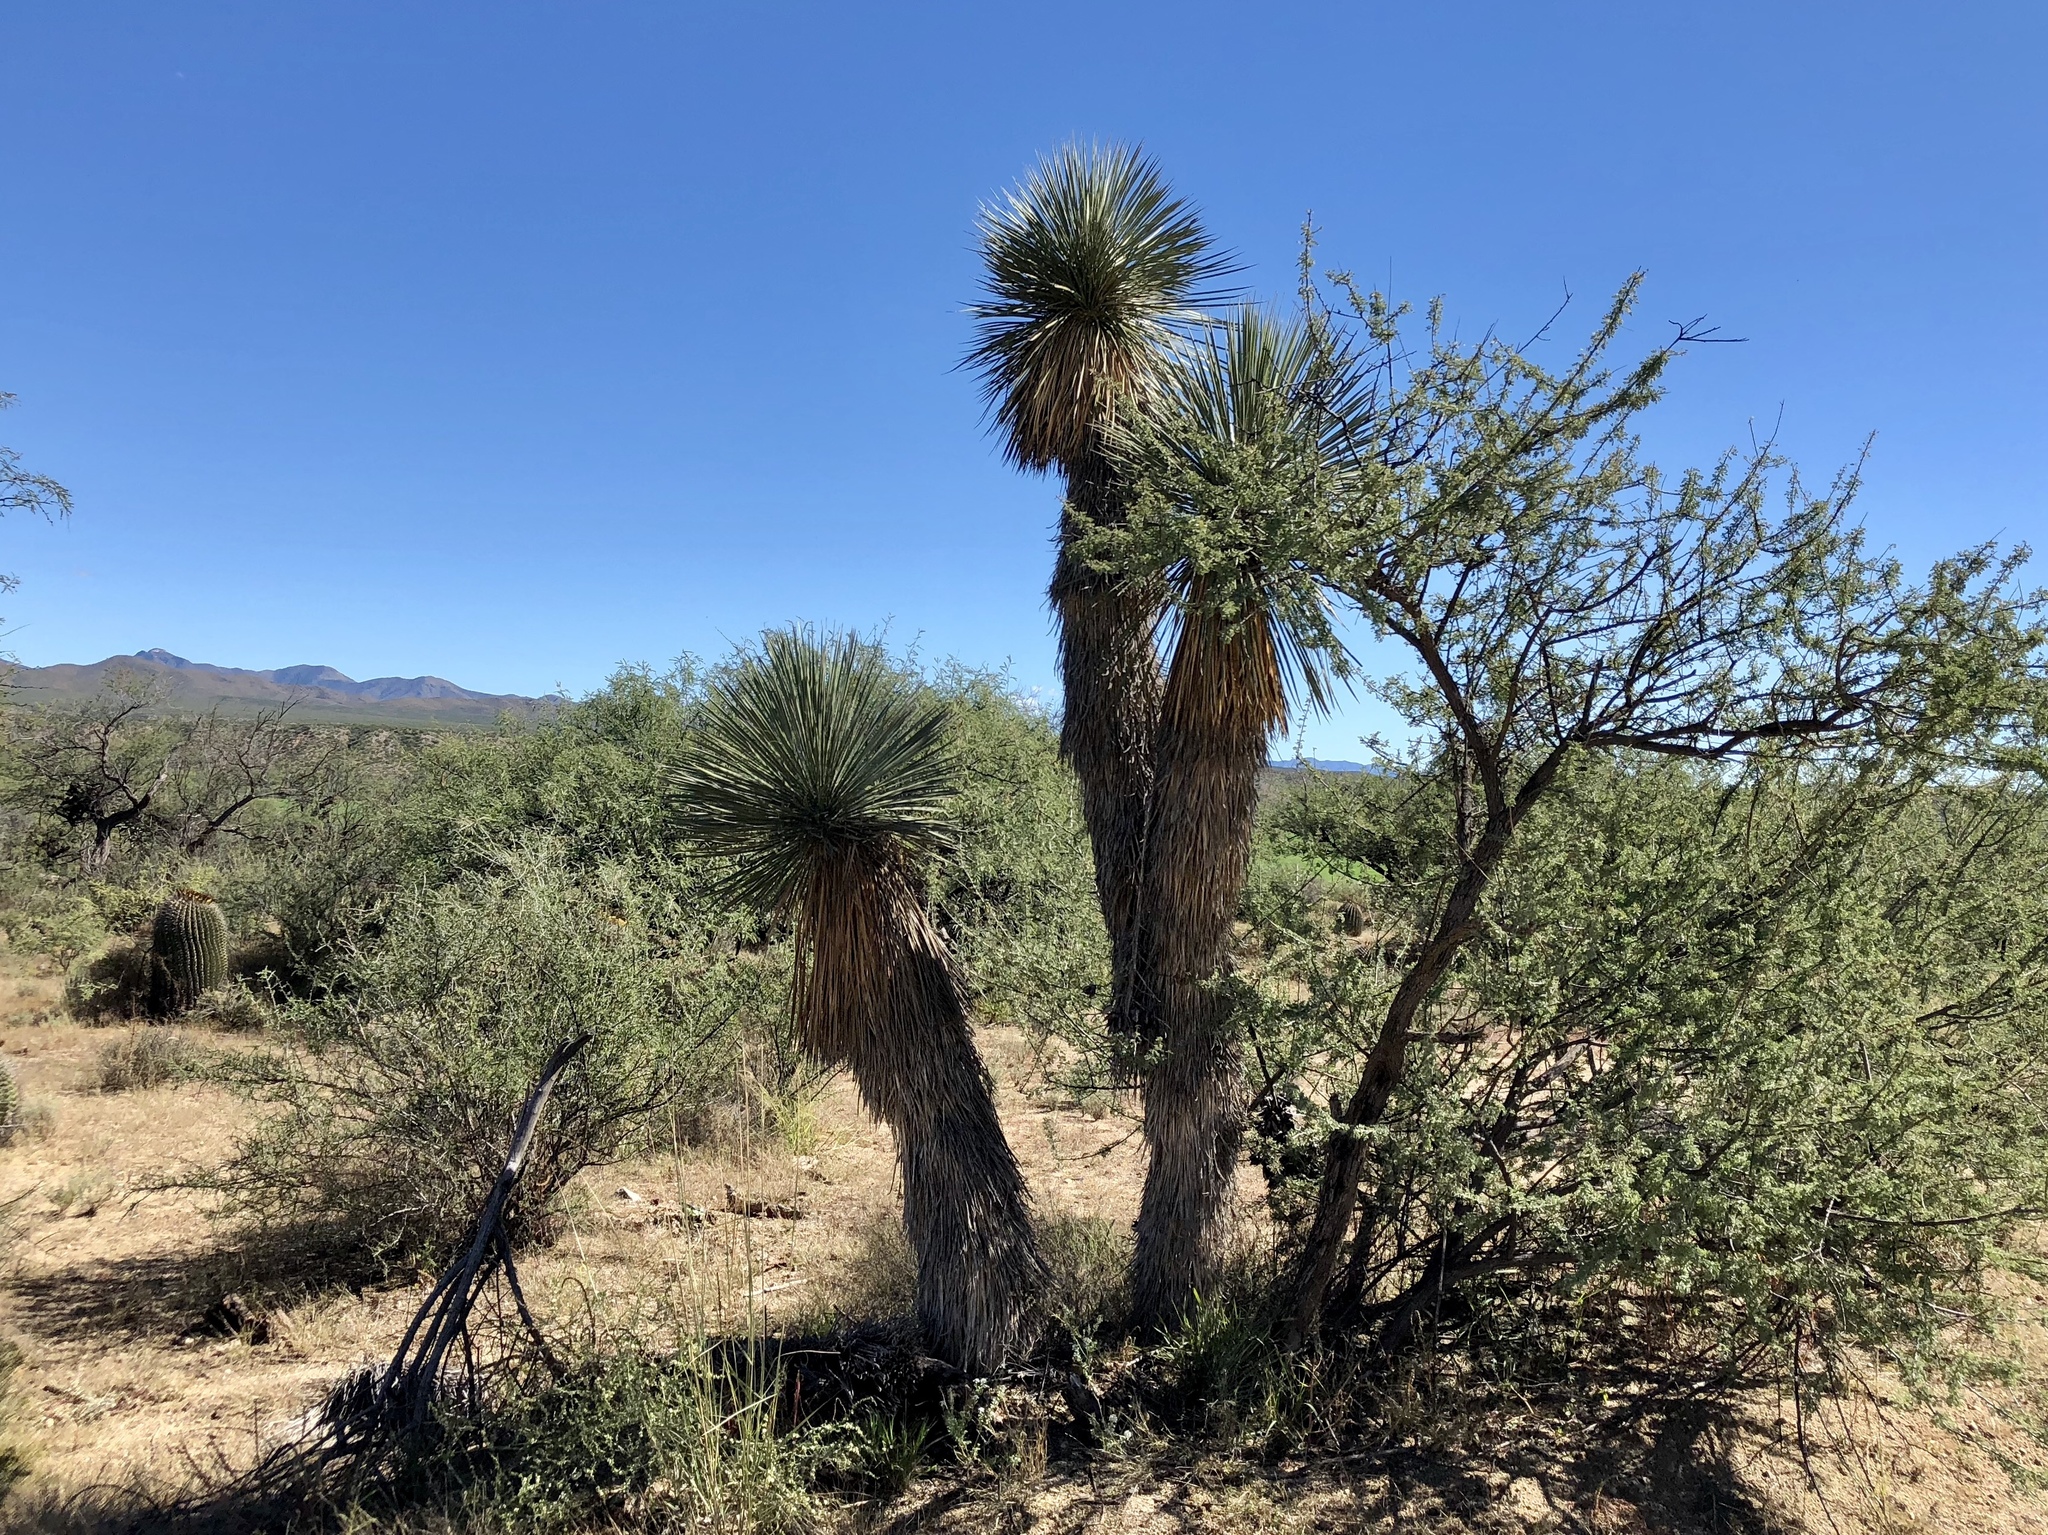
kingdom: Plantae
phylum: Tracheophyta
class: Liliopsida
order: Asparagales
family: Asparagaceae
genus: Yucca
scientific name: Yucca elata
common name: Palmella
